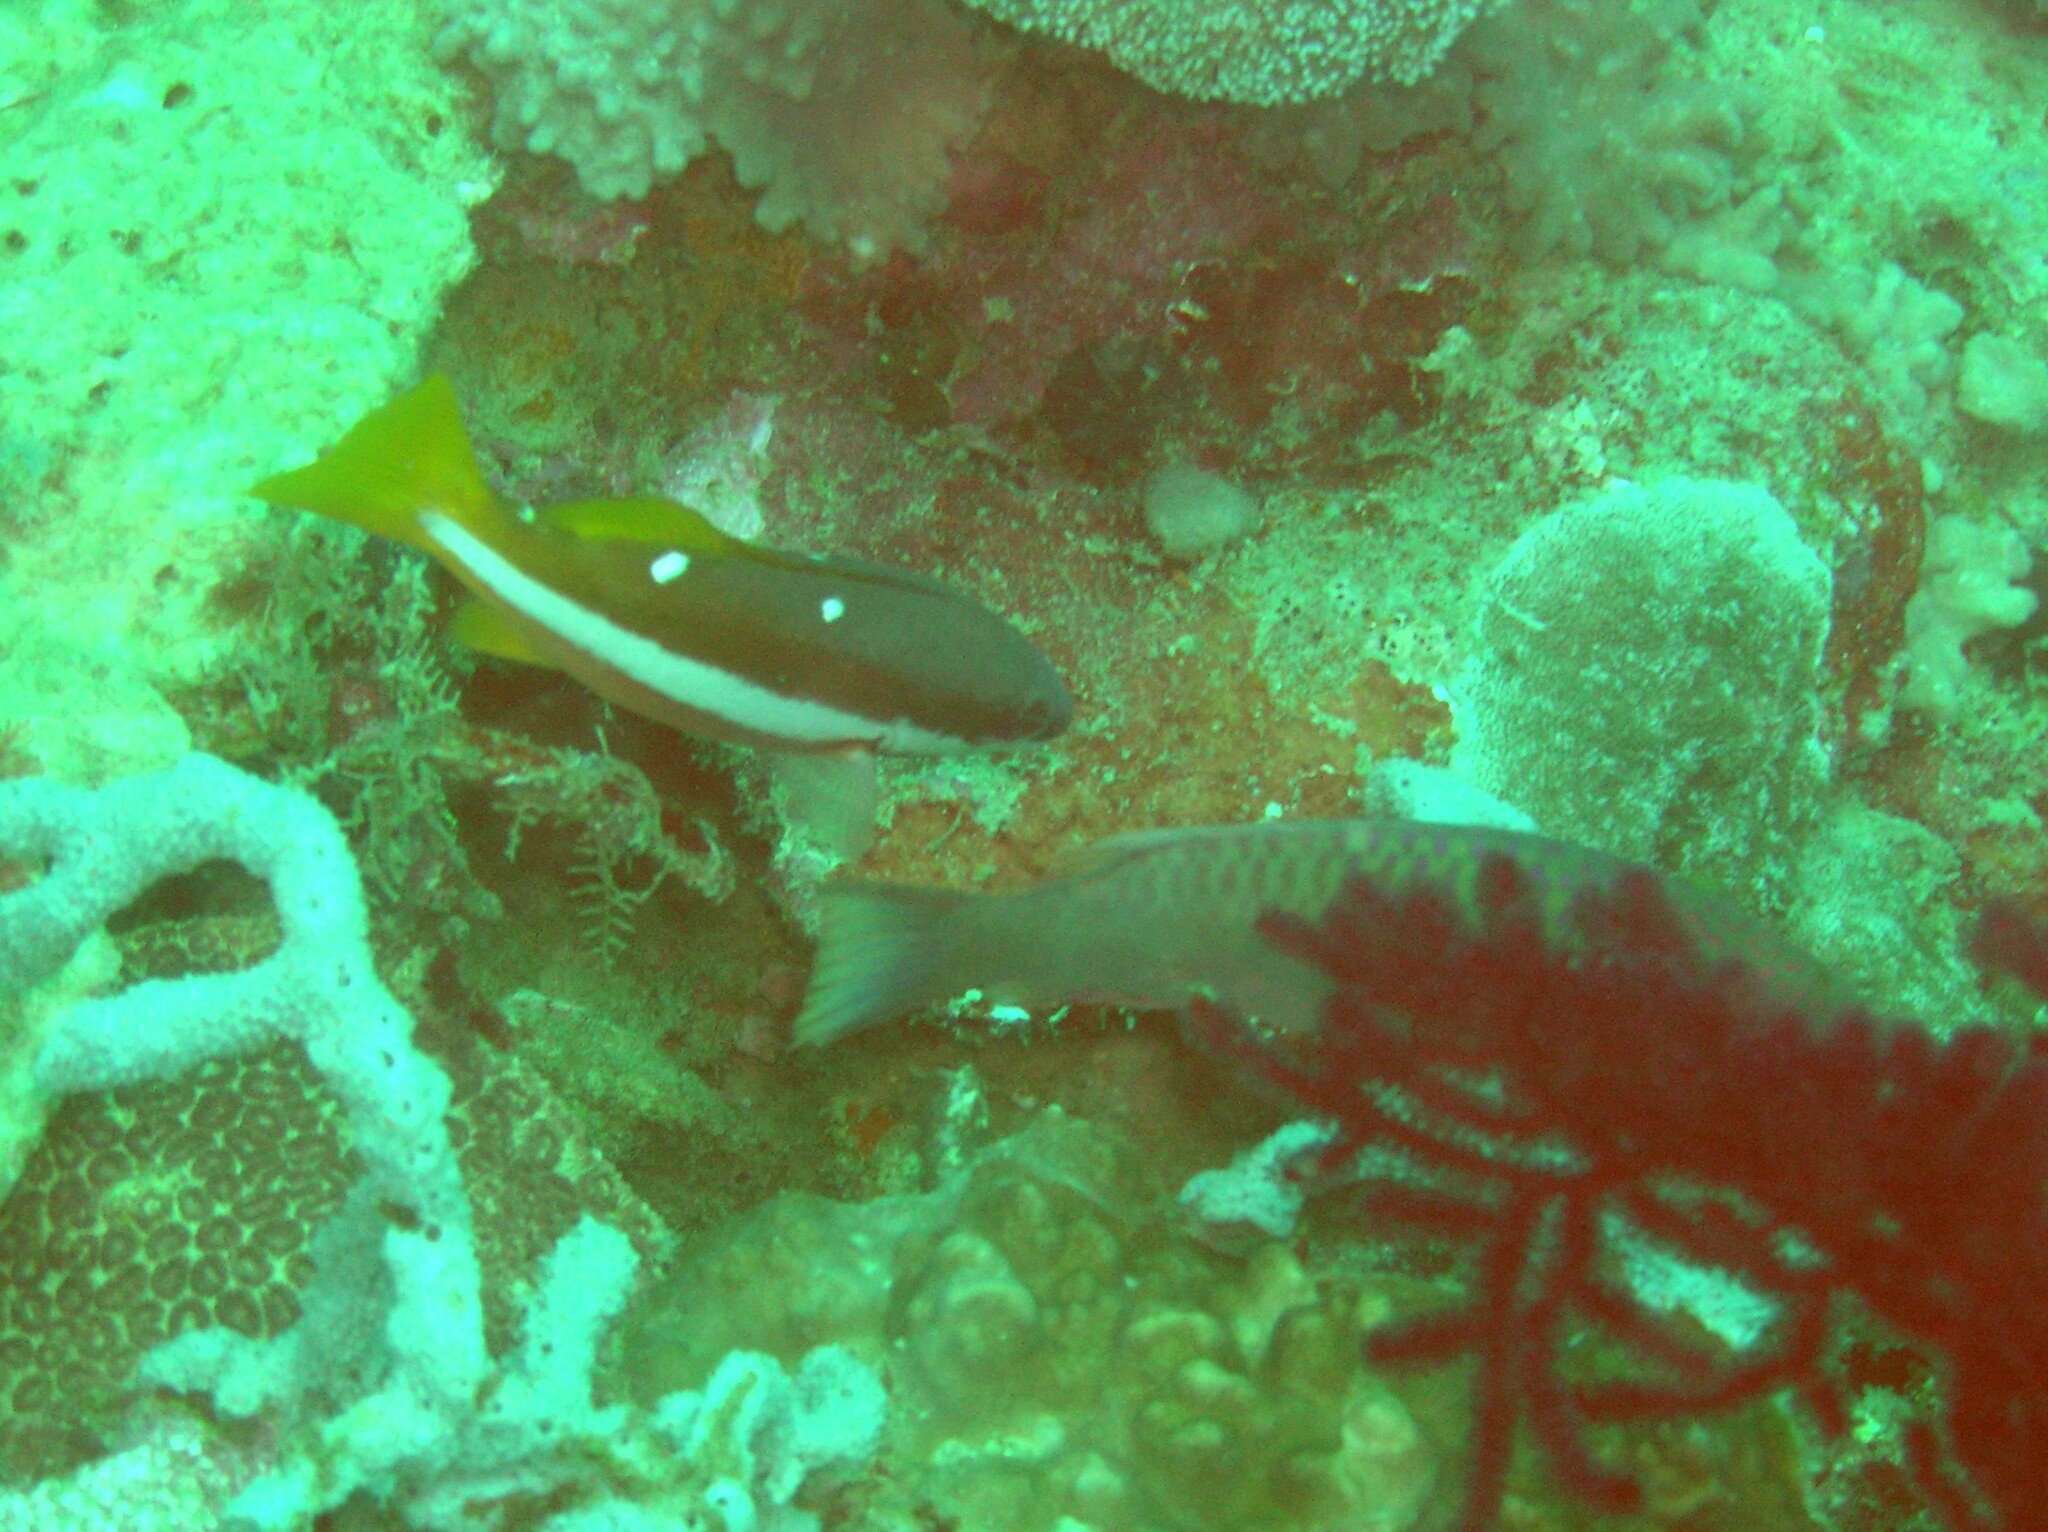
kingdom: Animalia
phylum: Chordata
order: Perciformes
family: Lutjanidae
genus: Lutjanus
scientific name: Lutjanus biguttatus
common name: Two-spot snapper
